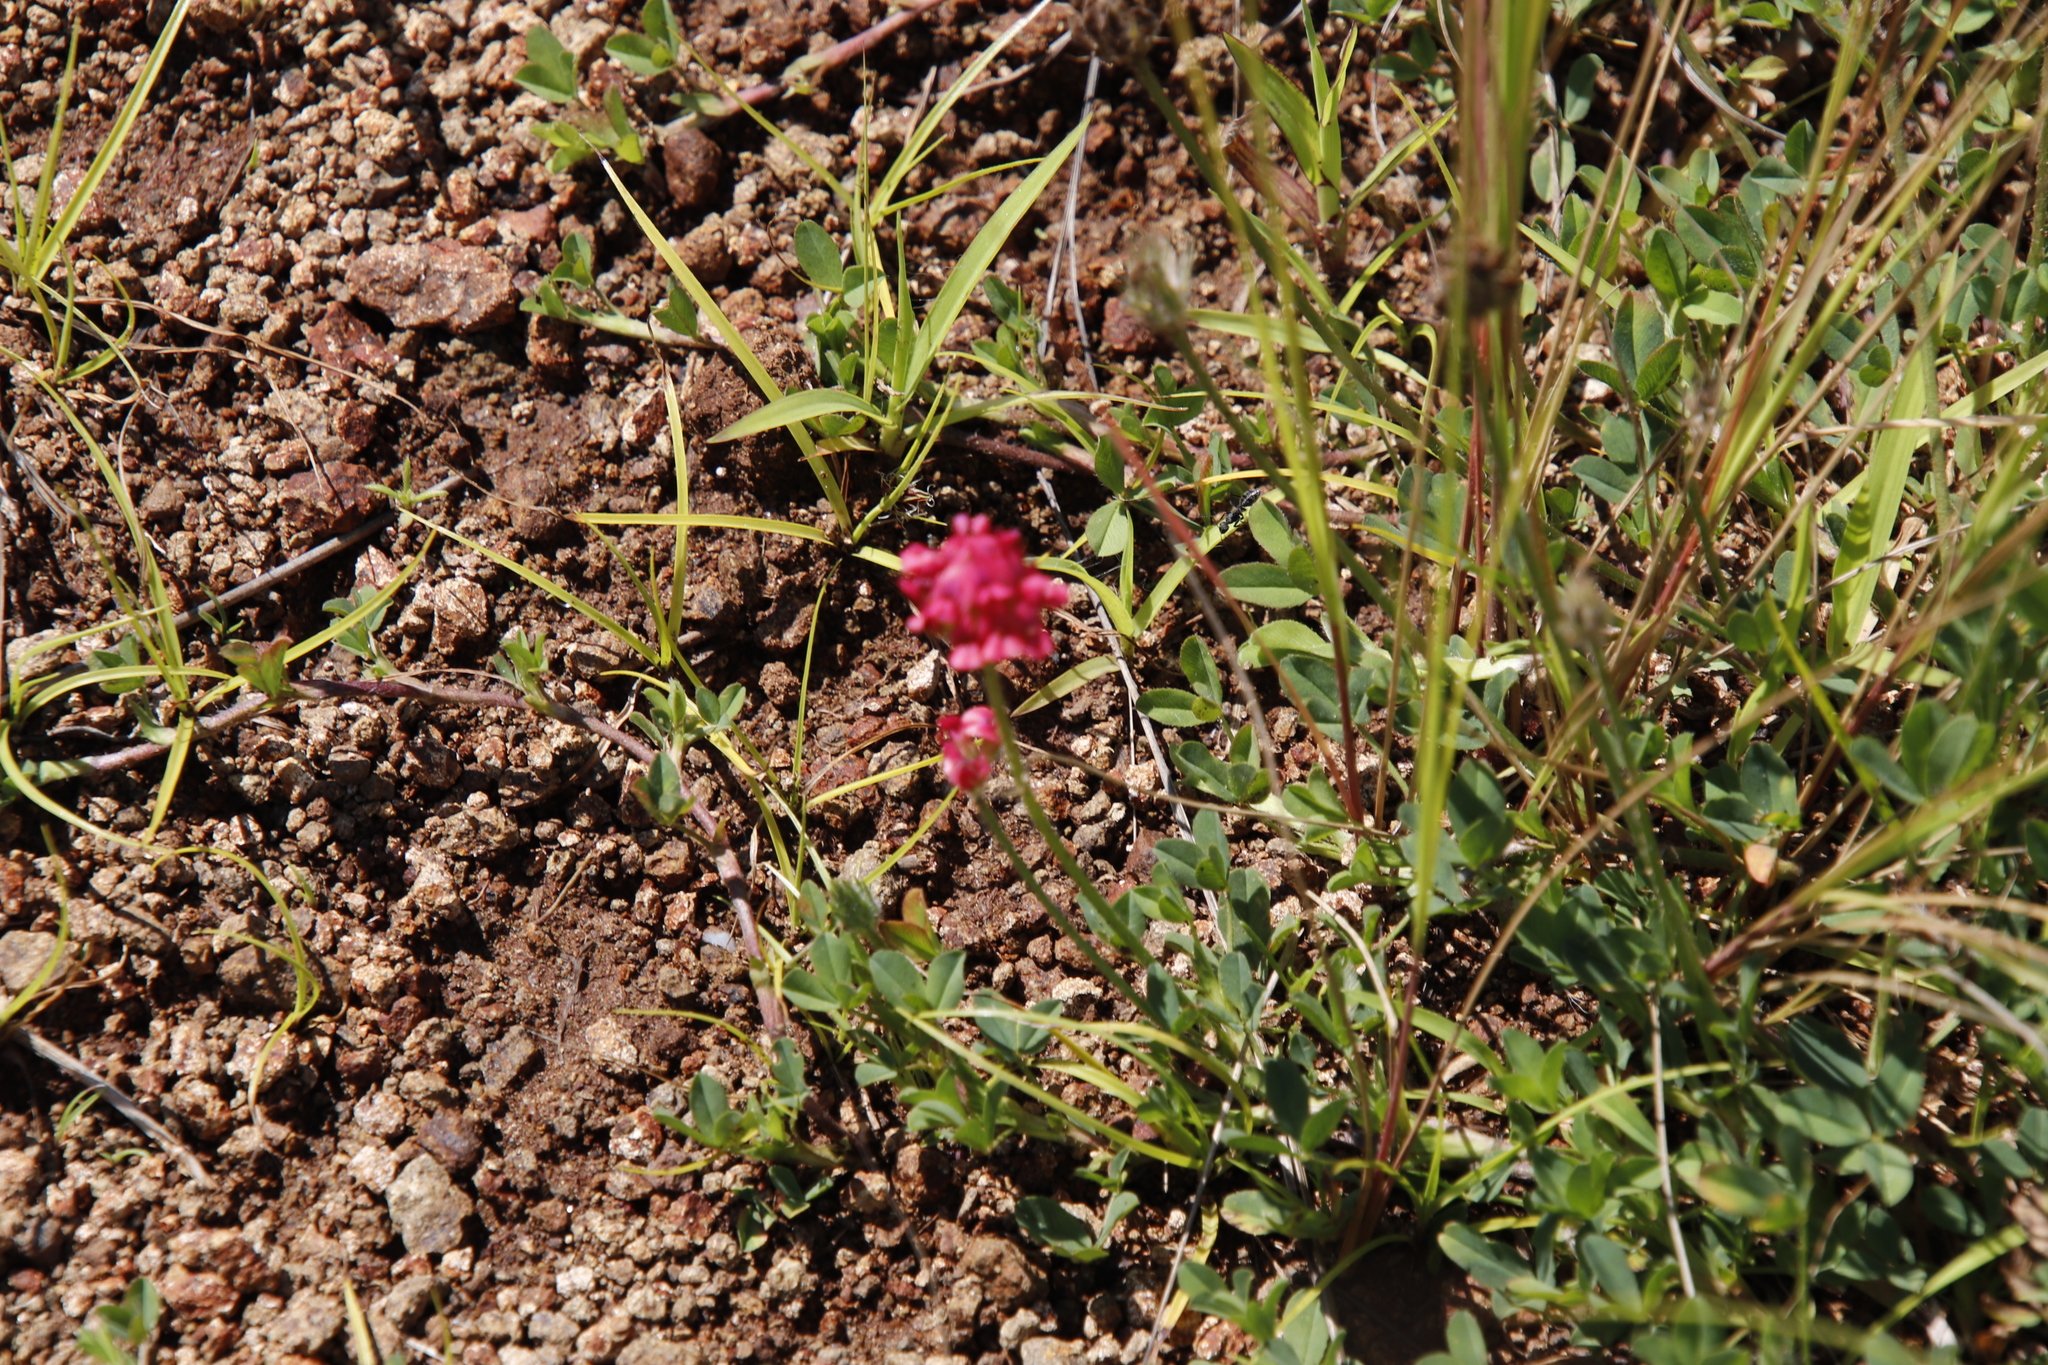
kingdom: Plantae
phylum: Tracheophyta
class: Magnoliopsida
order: Fabales
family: Fabaceae
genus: Trifolium
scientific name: Trifolium burchellianum
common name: Burchell's clover
